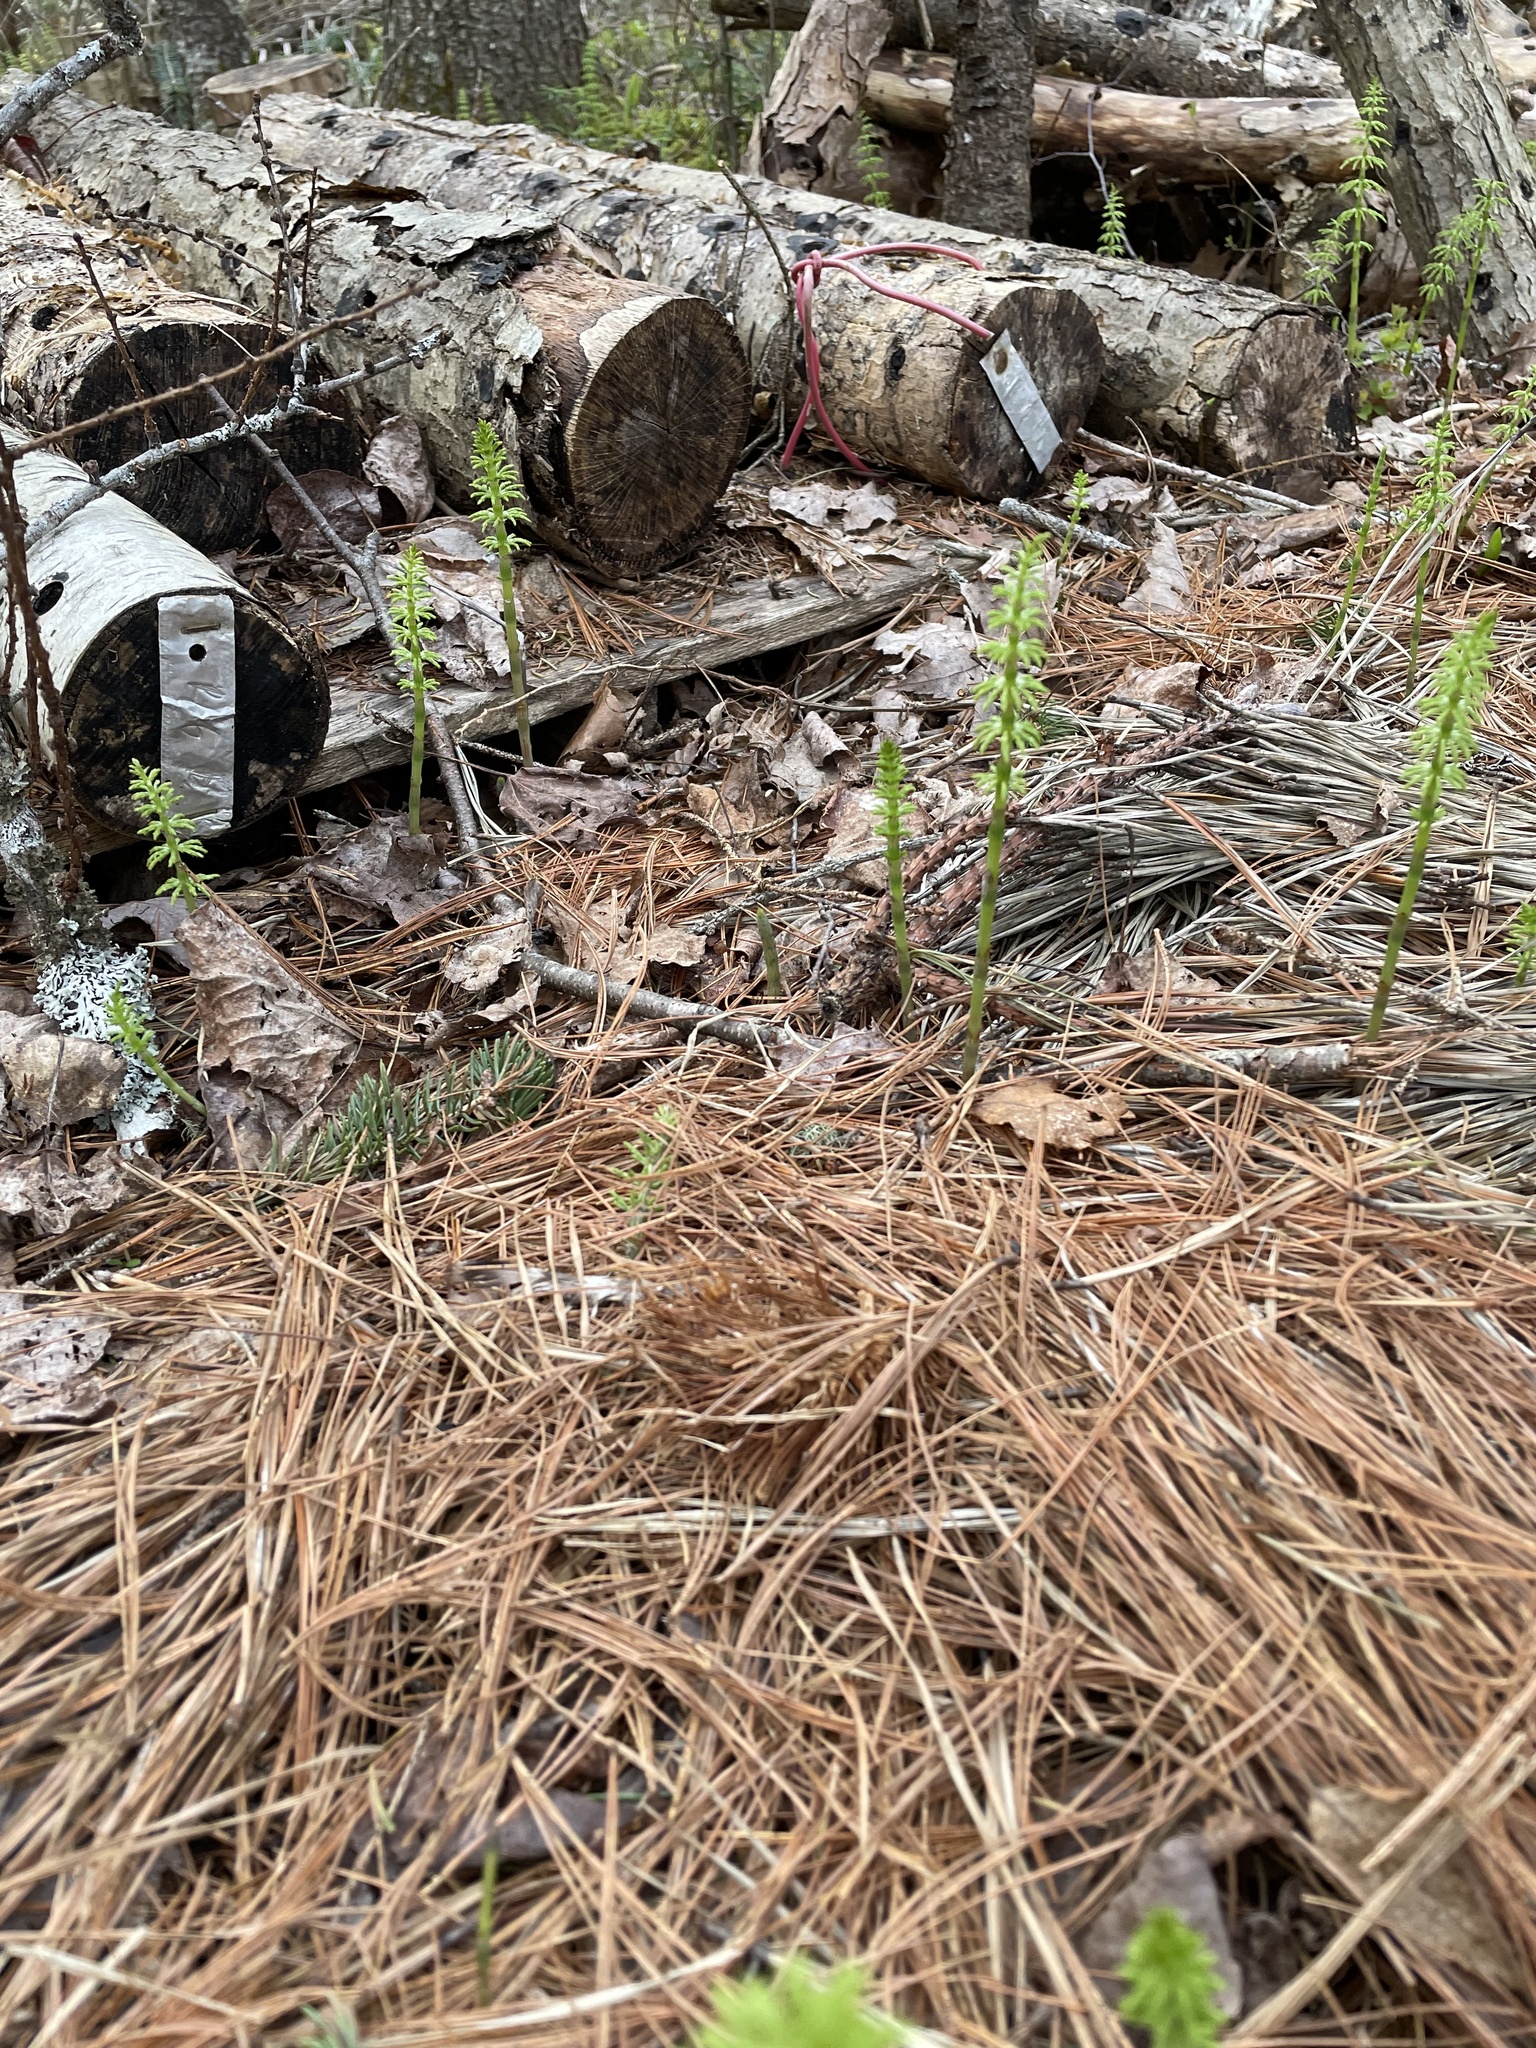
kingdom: Plantae
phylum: Tracheophyta
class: Polypodiopsida
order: Equisetales
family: Equisetaceae
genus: Equisetum
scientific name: Equisetum arvense
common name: Field horsetail
